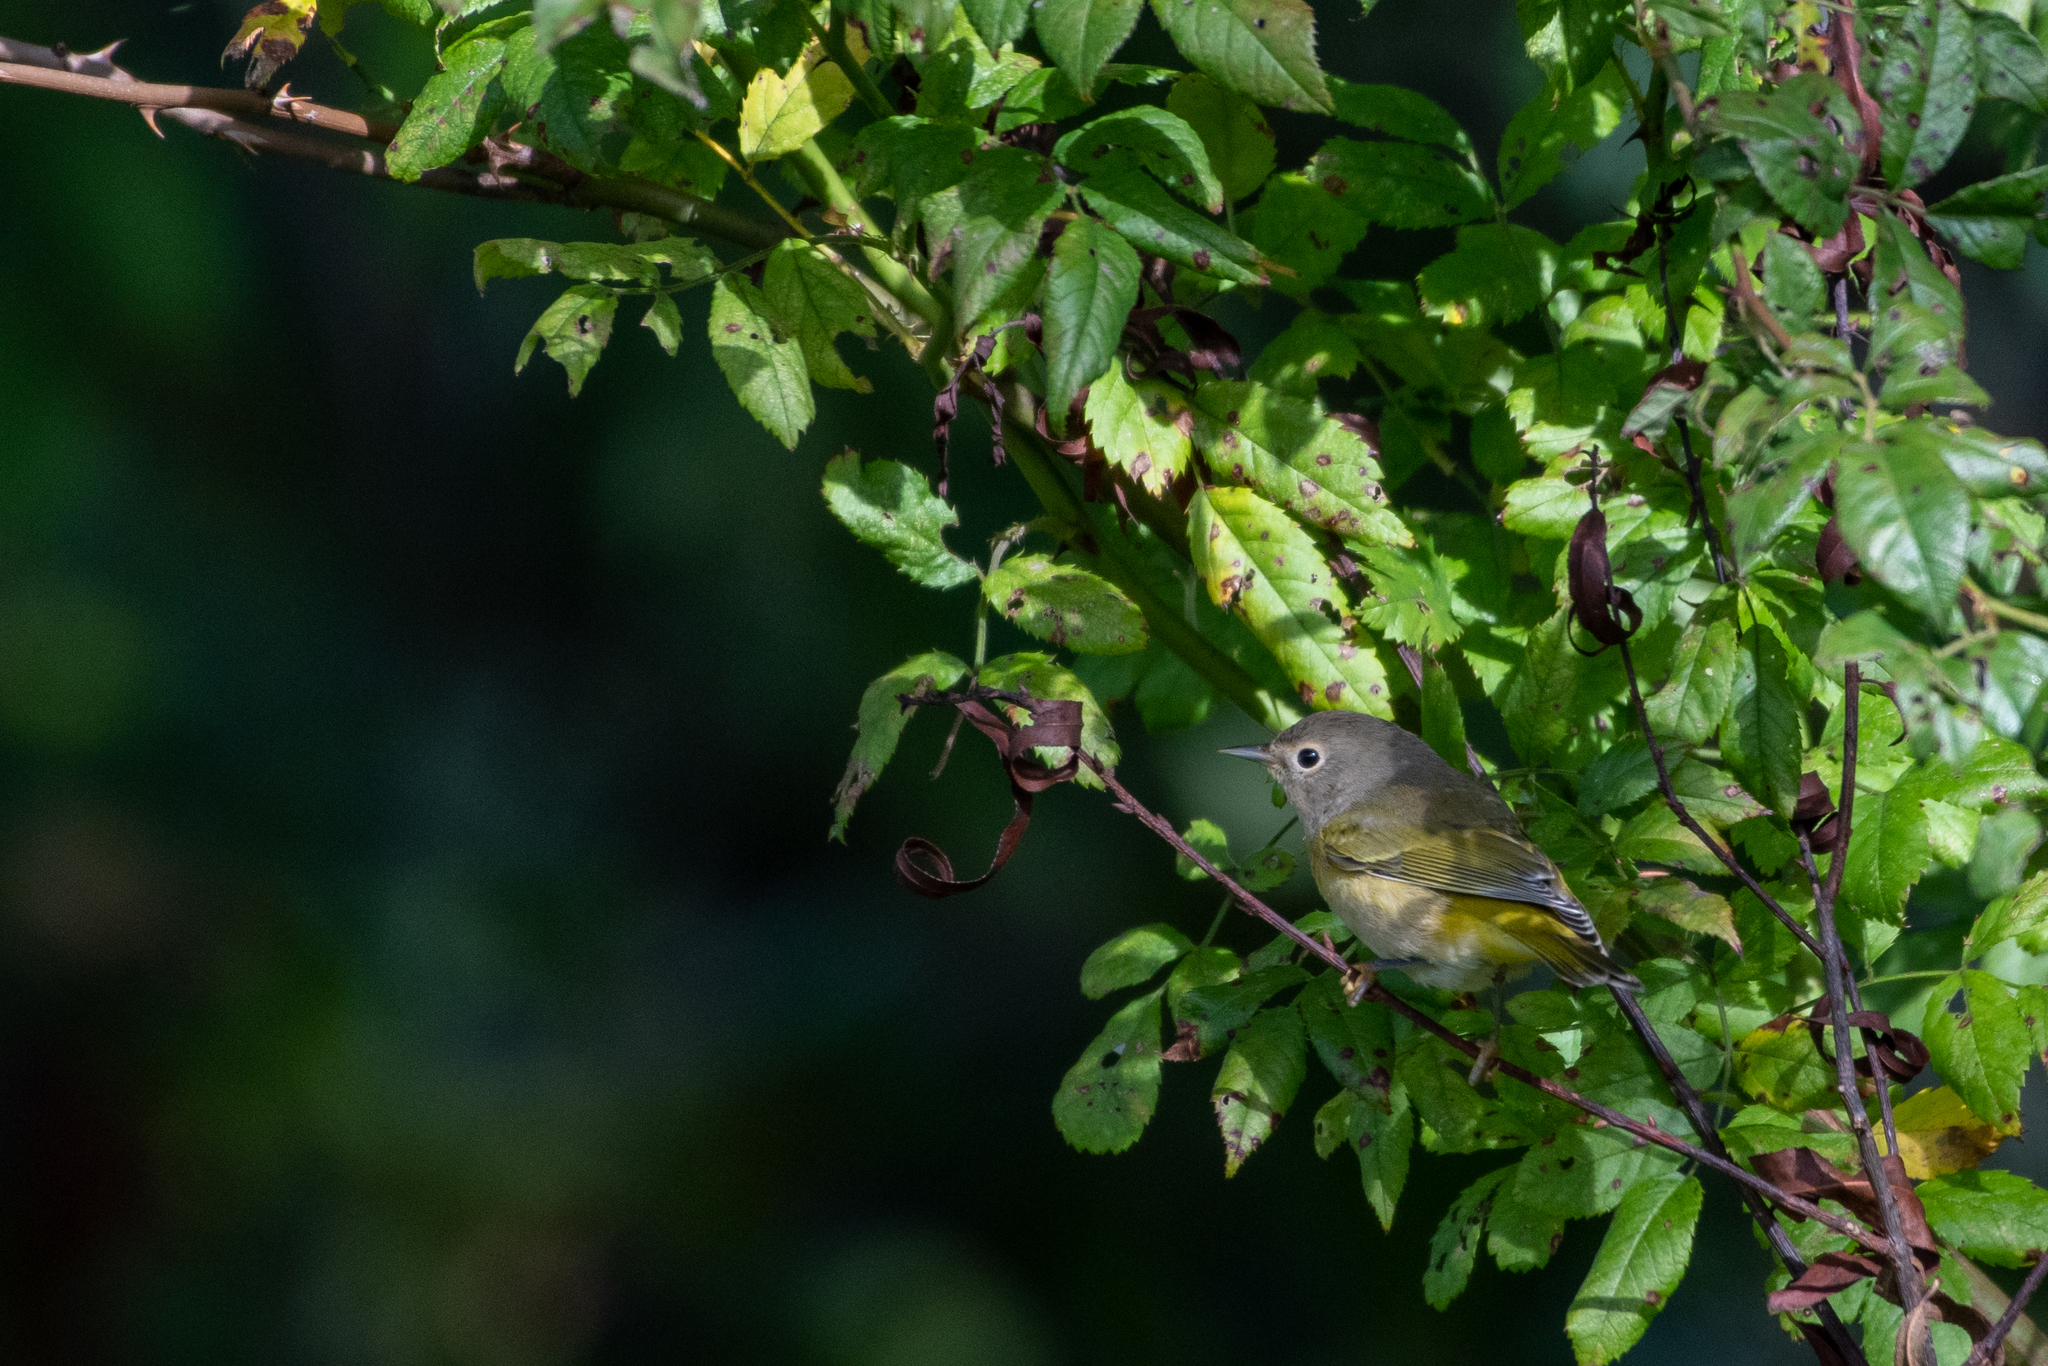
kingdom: Animalia
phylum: Chordata
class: Aves
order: Passeriformes
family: Parulidae
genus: Leiothlypis
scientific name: Leiothlypis ruficapilla
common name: Nashville warbler
